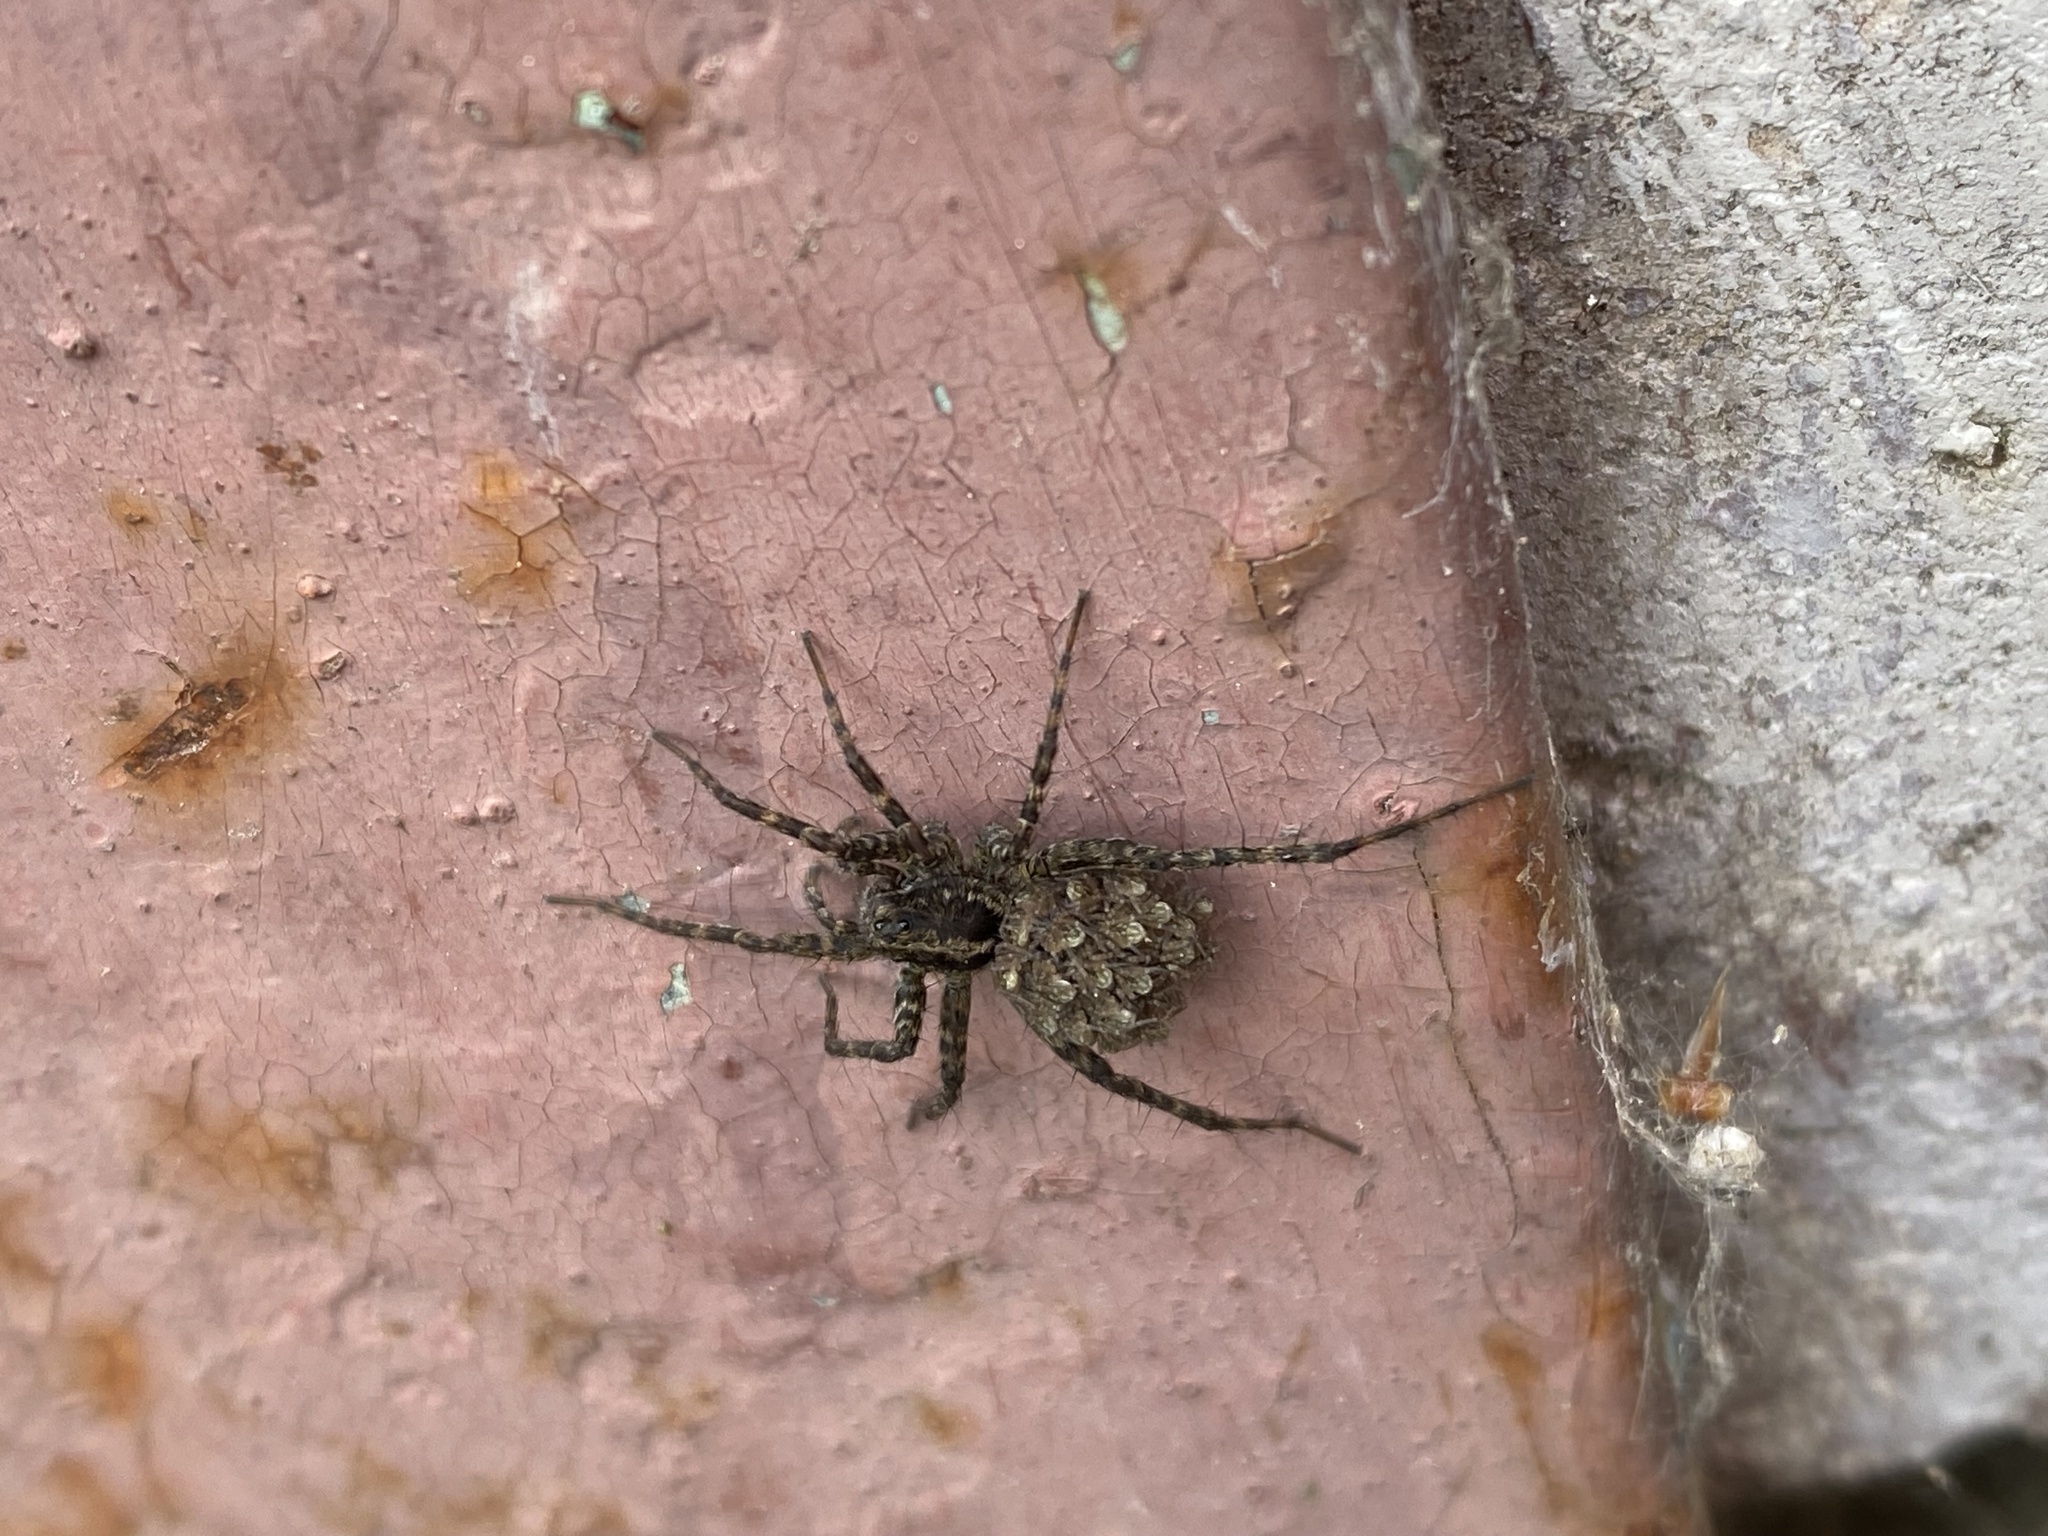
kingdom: Animalia
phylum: Arthropoda
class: Arachnida
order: Araneae
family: Lycosidae
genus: Pardosa
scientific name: Pardosa
